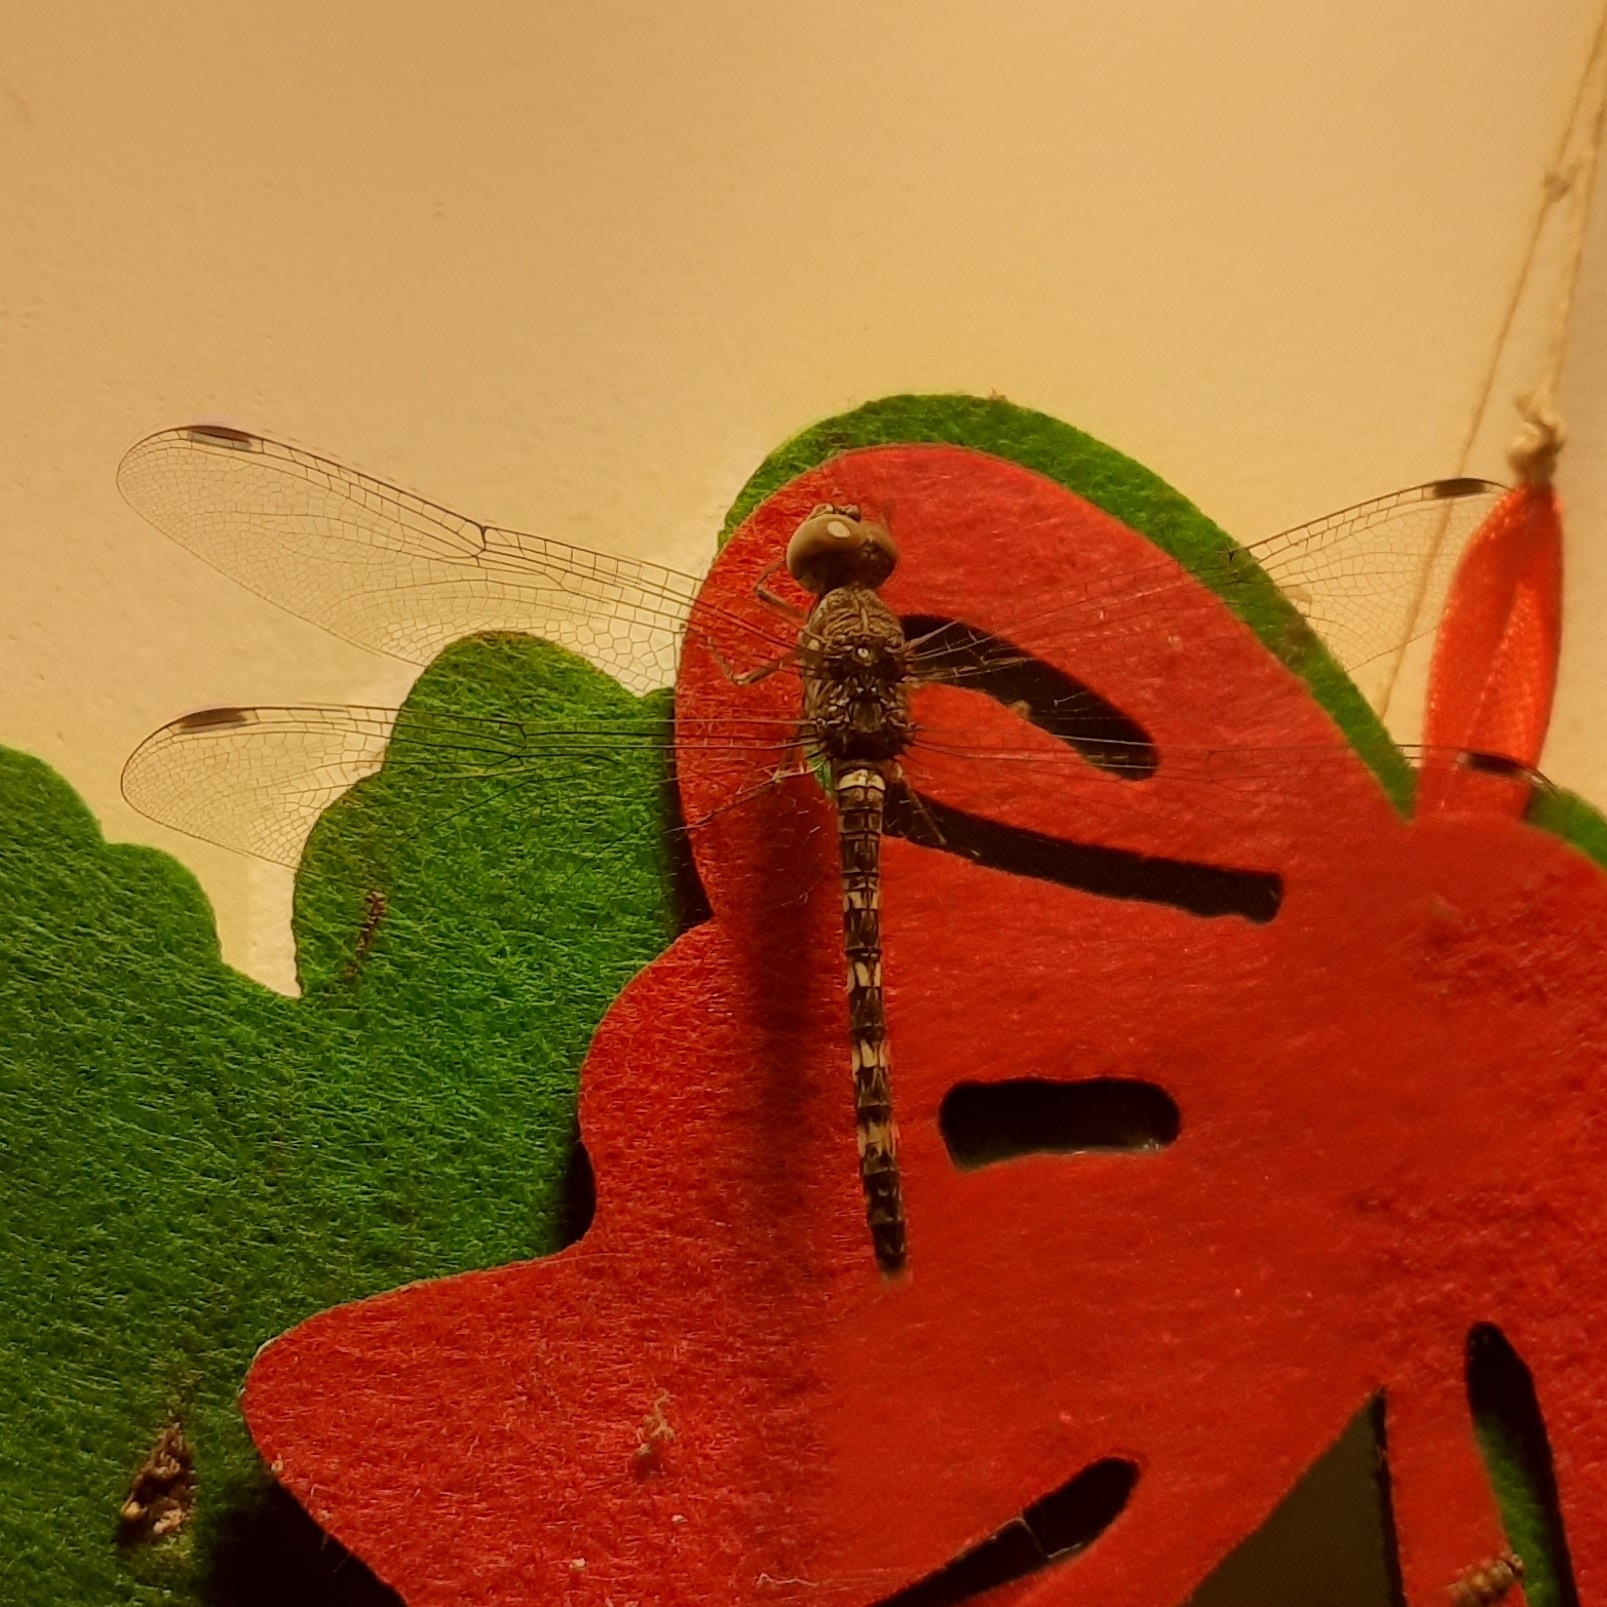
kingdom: Animalia
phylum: Arthropoda
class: Insecta
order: Odonata
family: Libellulidae
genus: Bradinopyga
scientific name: Bradinopyga geminata
